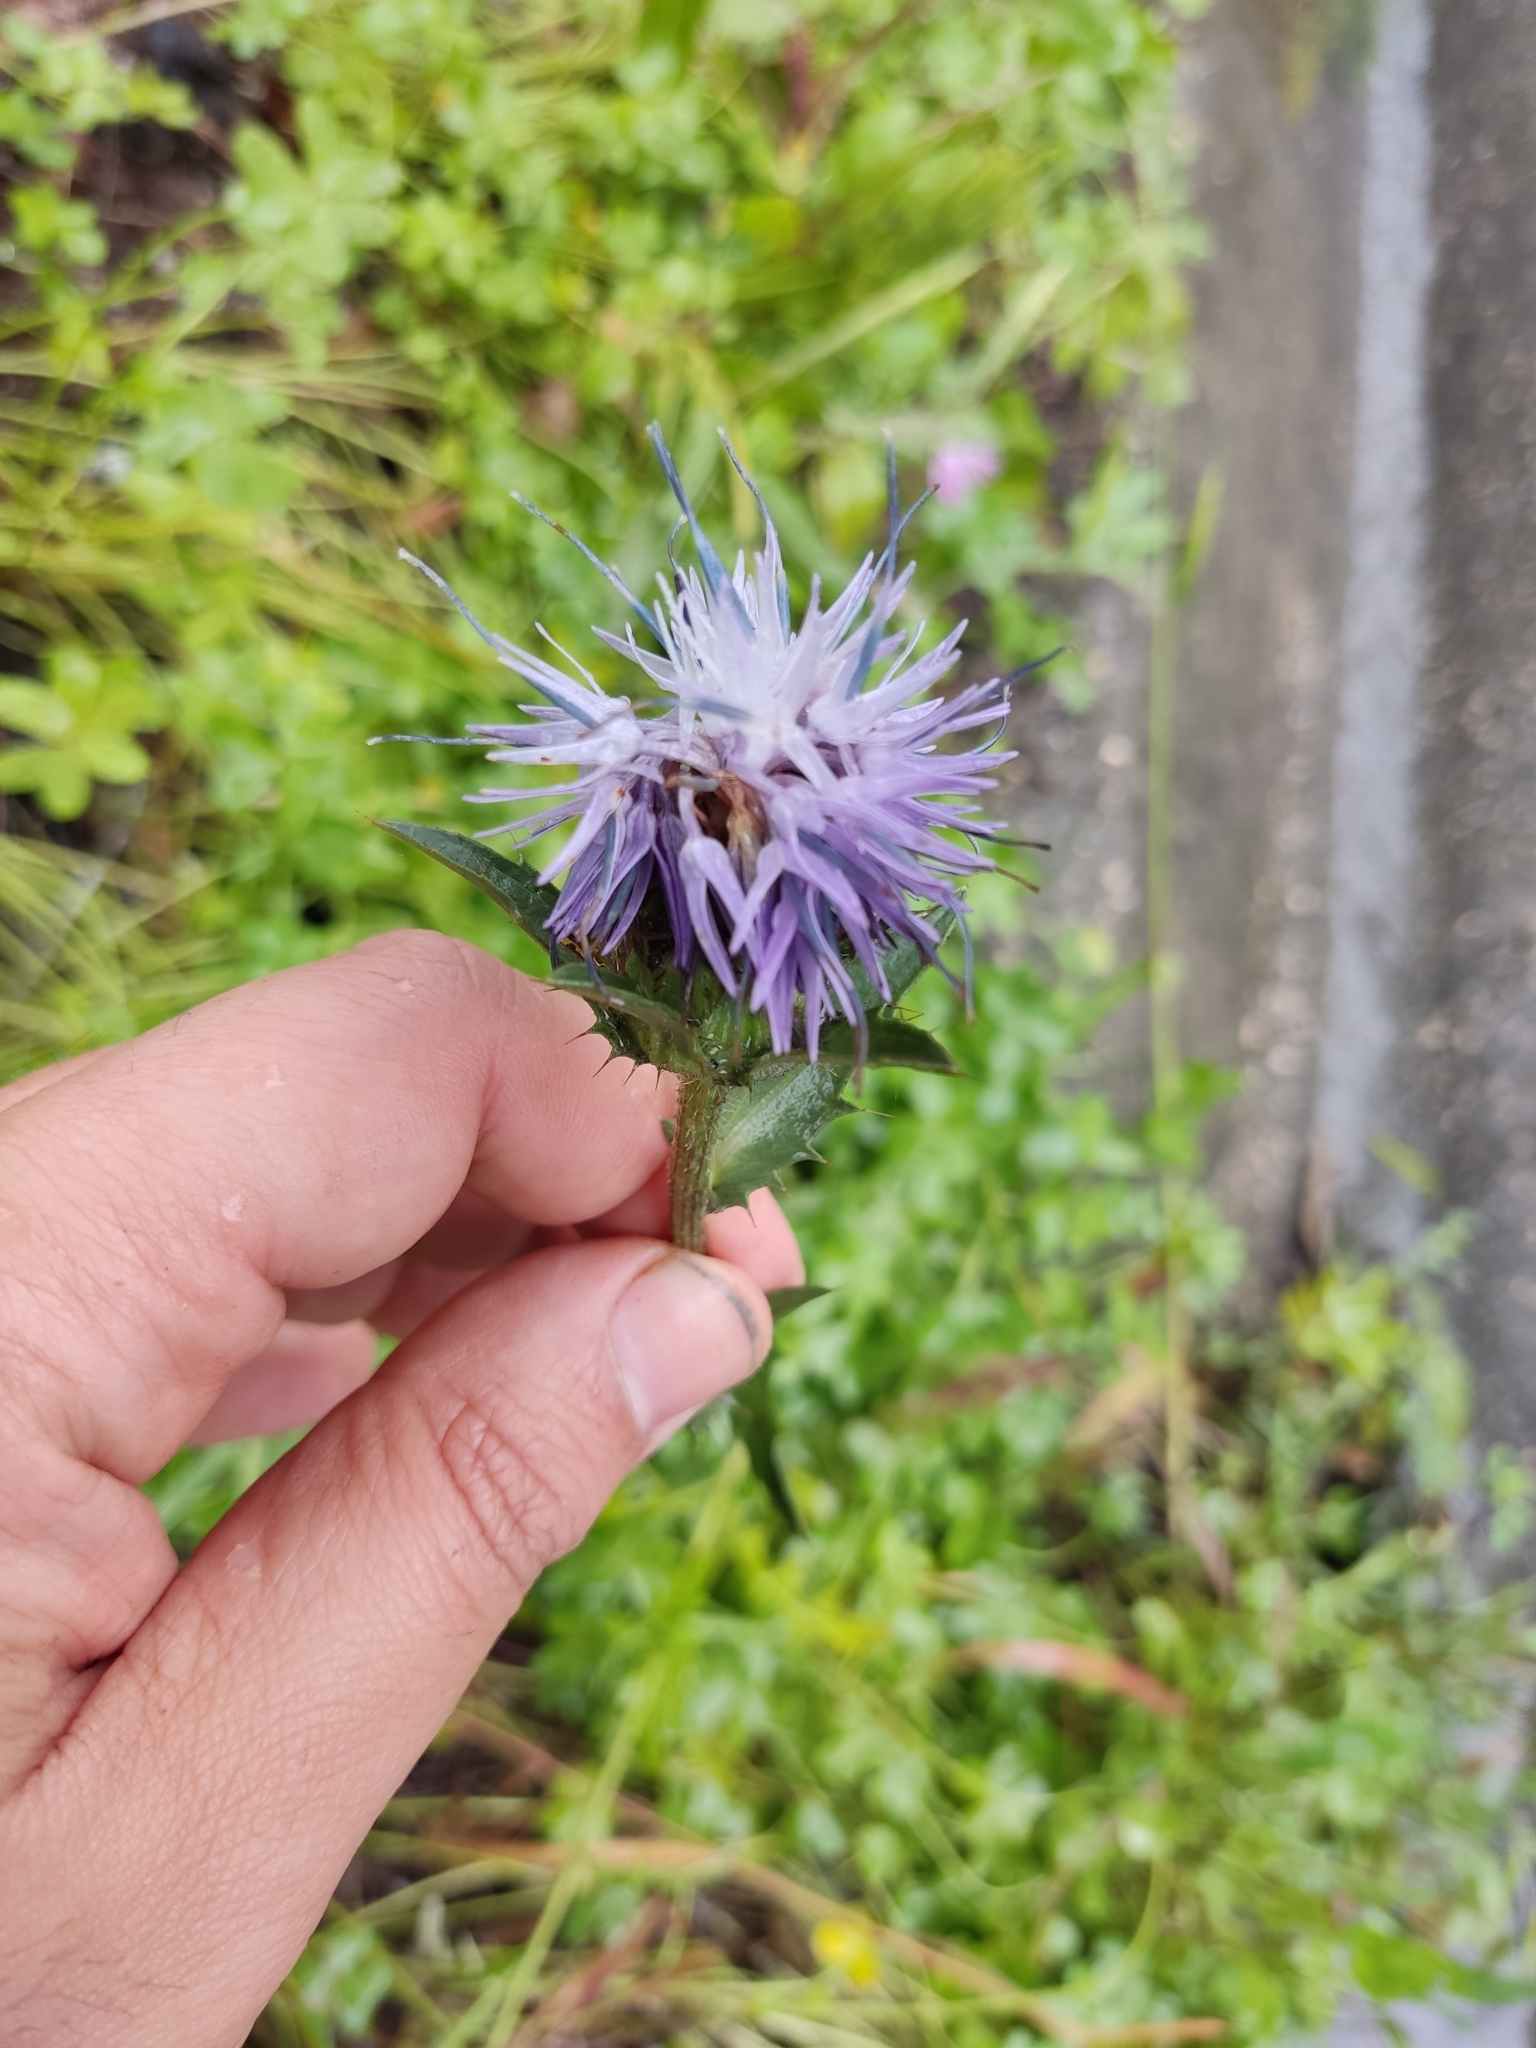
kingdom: Plantae
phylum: Tracheophyta
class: Magnoliopsida
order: Asterales
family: Asteraceae
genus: Carduncellus
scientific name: Carduncellus caeruleus
